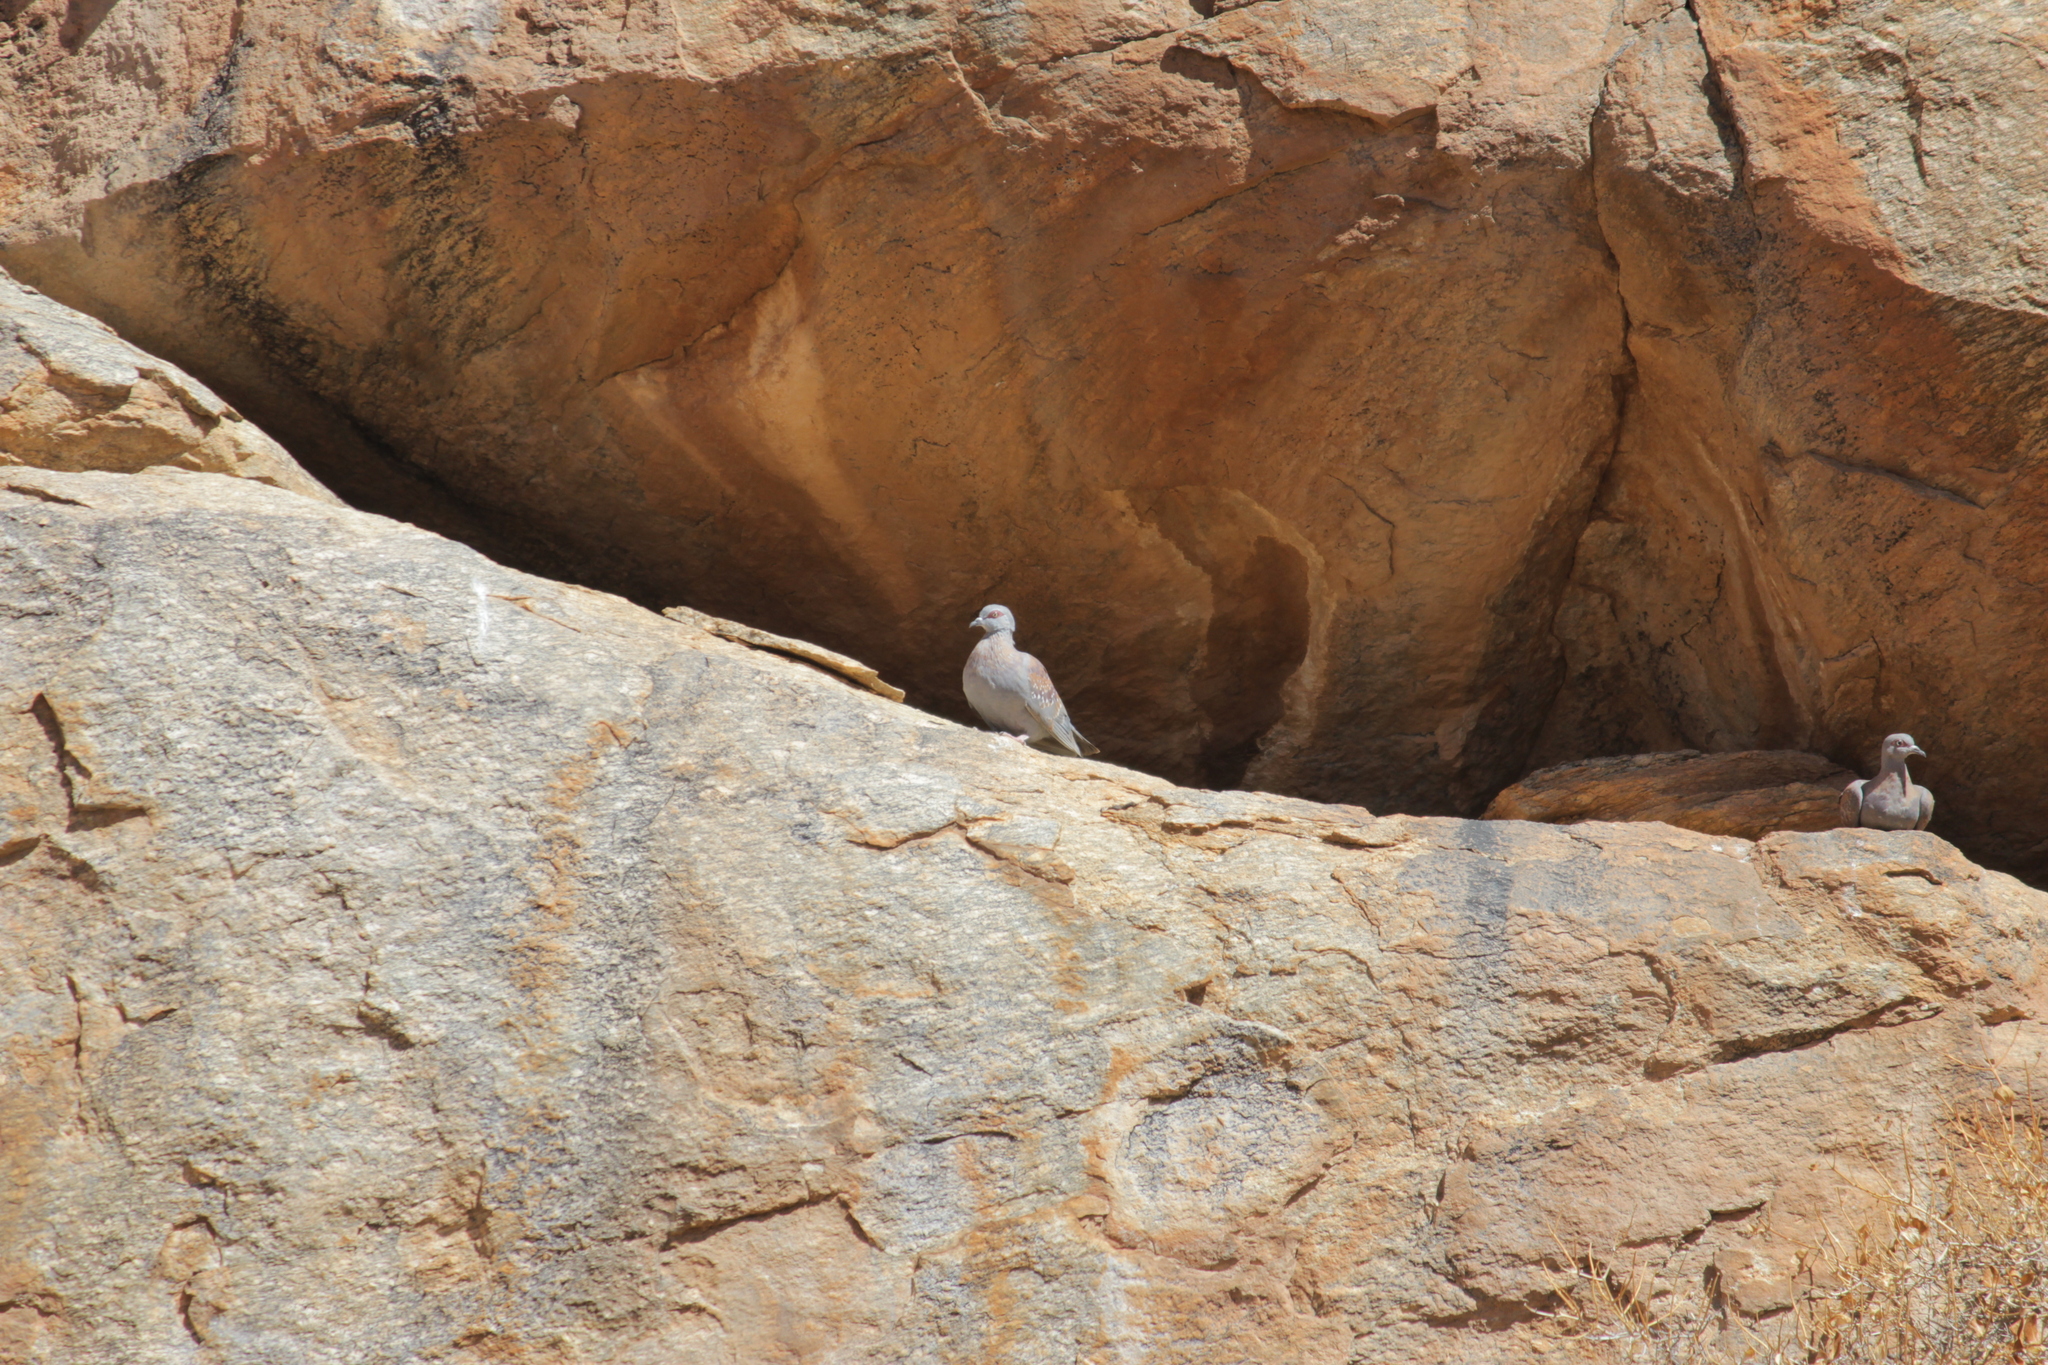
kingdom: Animalia
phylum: Chordata
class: Aves
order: Columbiformes
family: Columbidae
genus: Columba
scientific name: Columba guinea
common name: Speckled pigeon
